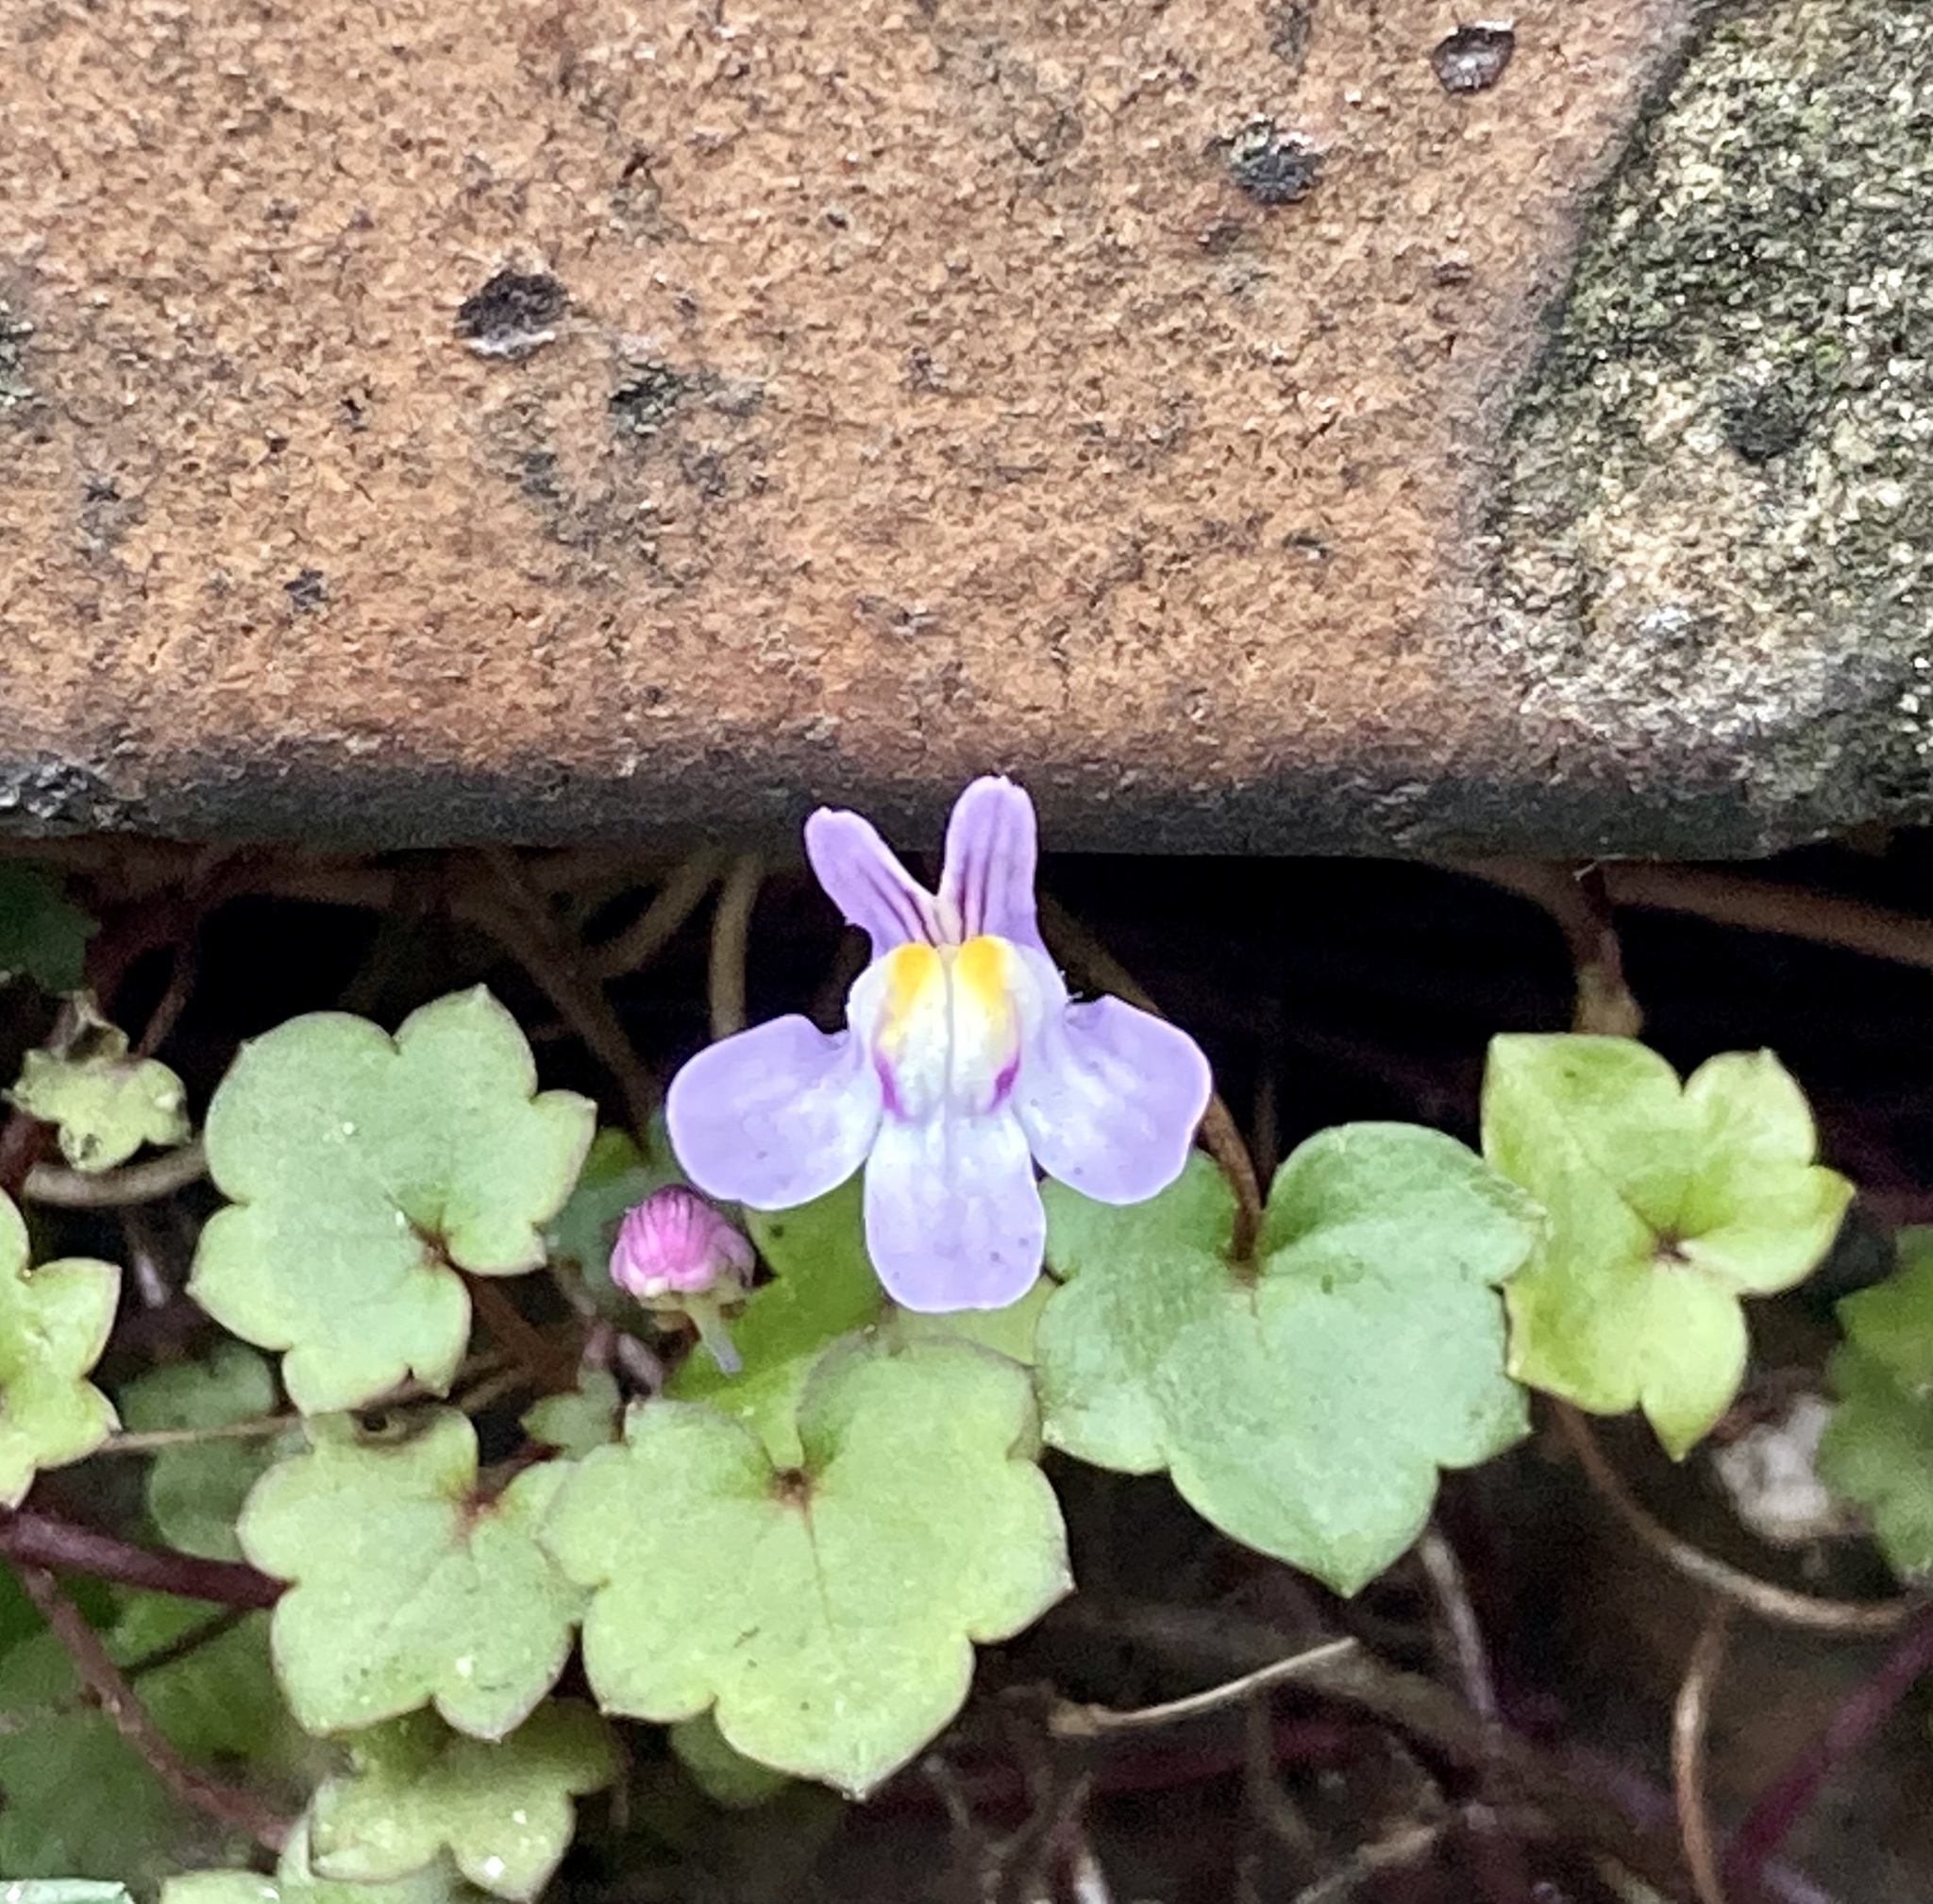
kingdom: Plantae
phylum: Tracheophyta
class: Magnoliopsida
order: Lamiales
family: Plantaginaceae
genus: Cymbalaria
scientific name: Cymbalaria muralis
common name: Ivy-leaved toadflax
